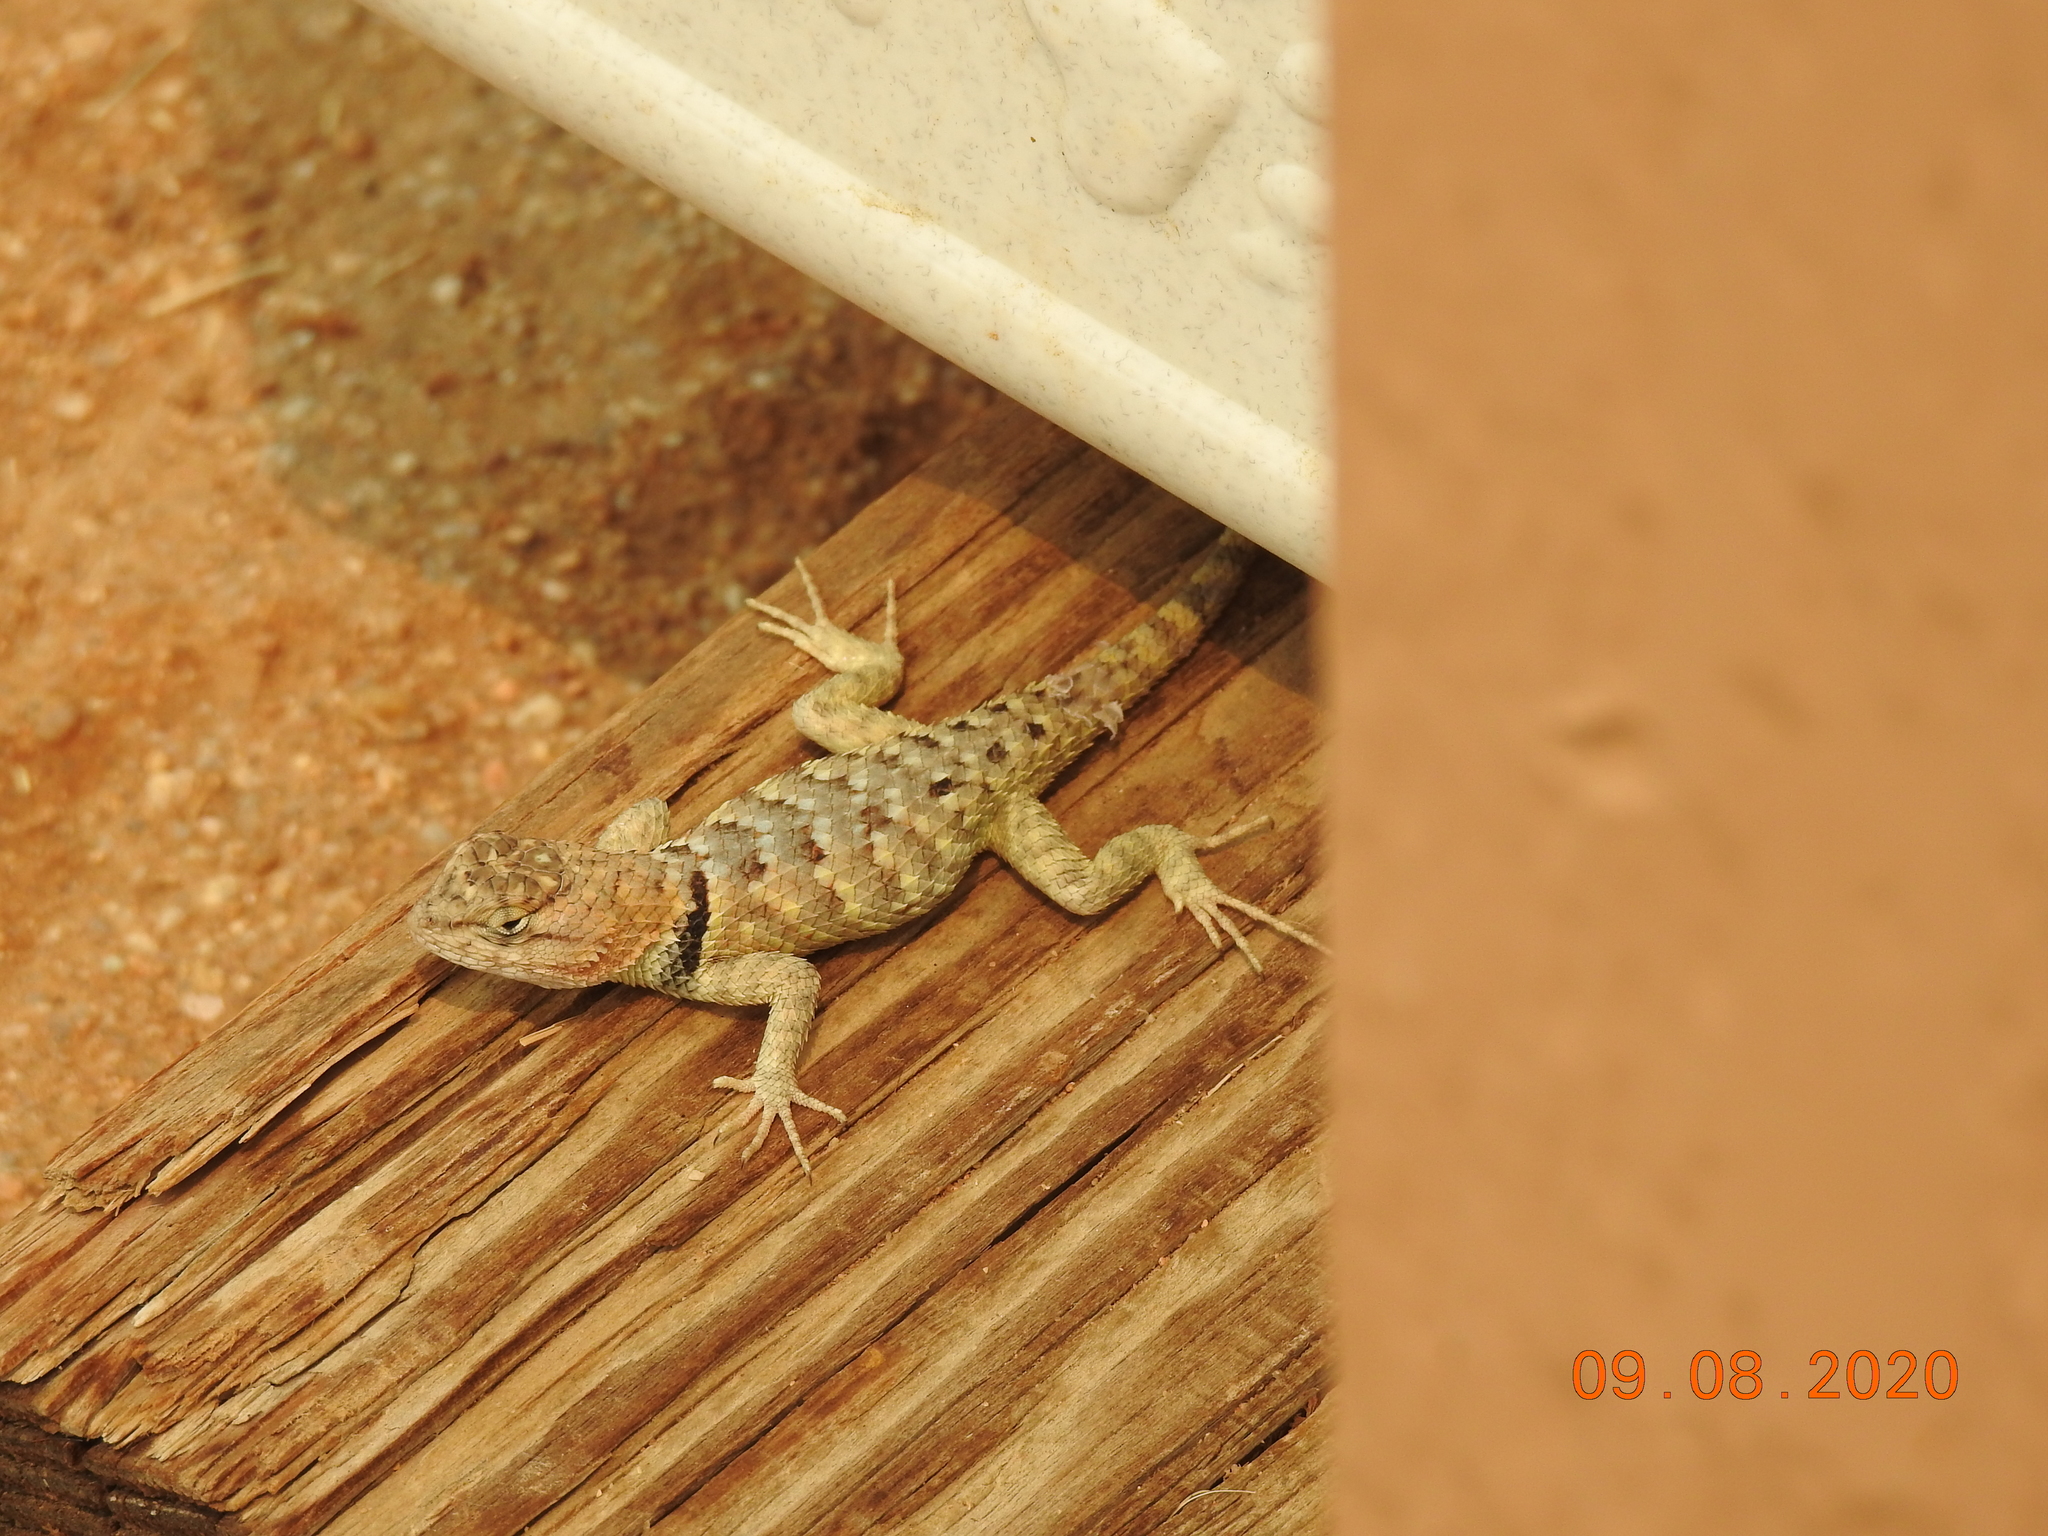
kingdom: Animalia
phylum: Chordata
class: Squamata
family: Phrynosomatidae
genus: Sceloporus
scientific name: Sceloporus magister
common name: Desert spiny lizard
